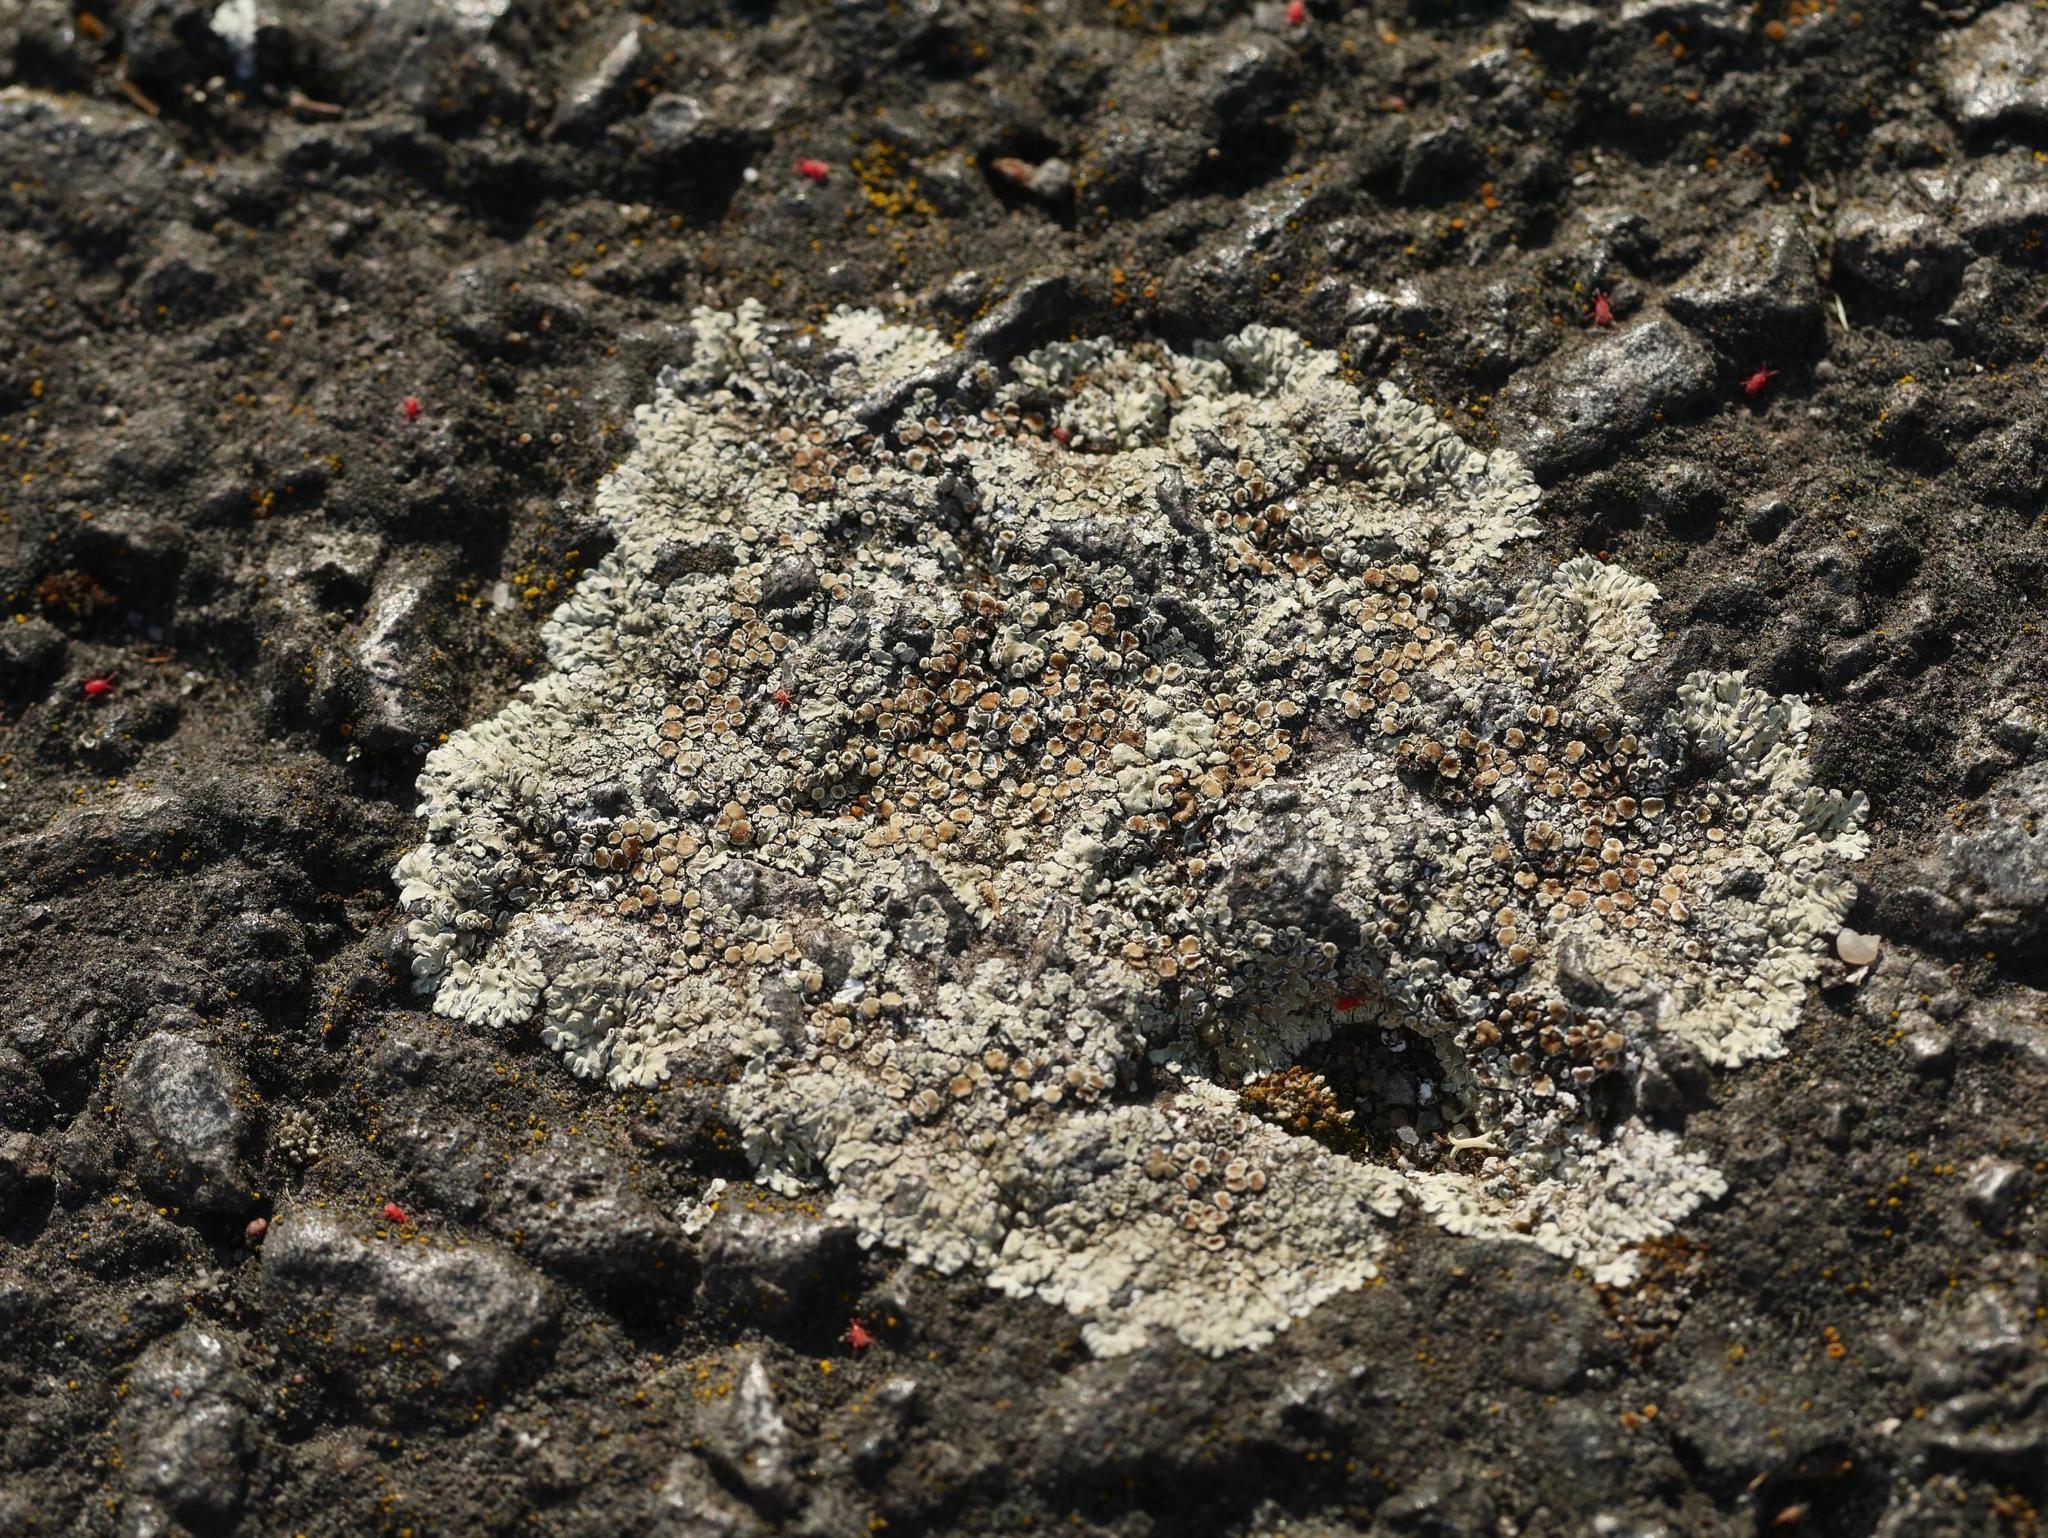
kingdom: Fungi
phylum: Ascomycota
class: Lecanoromycetes
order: Lecanorales
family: Lecanoraceae
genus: Protoparmeliopsis
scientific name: Protoparmeliopsis muralis
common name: Stonewall rim lichen
